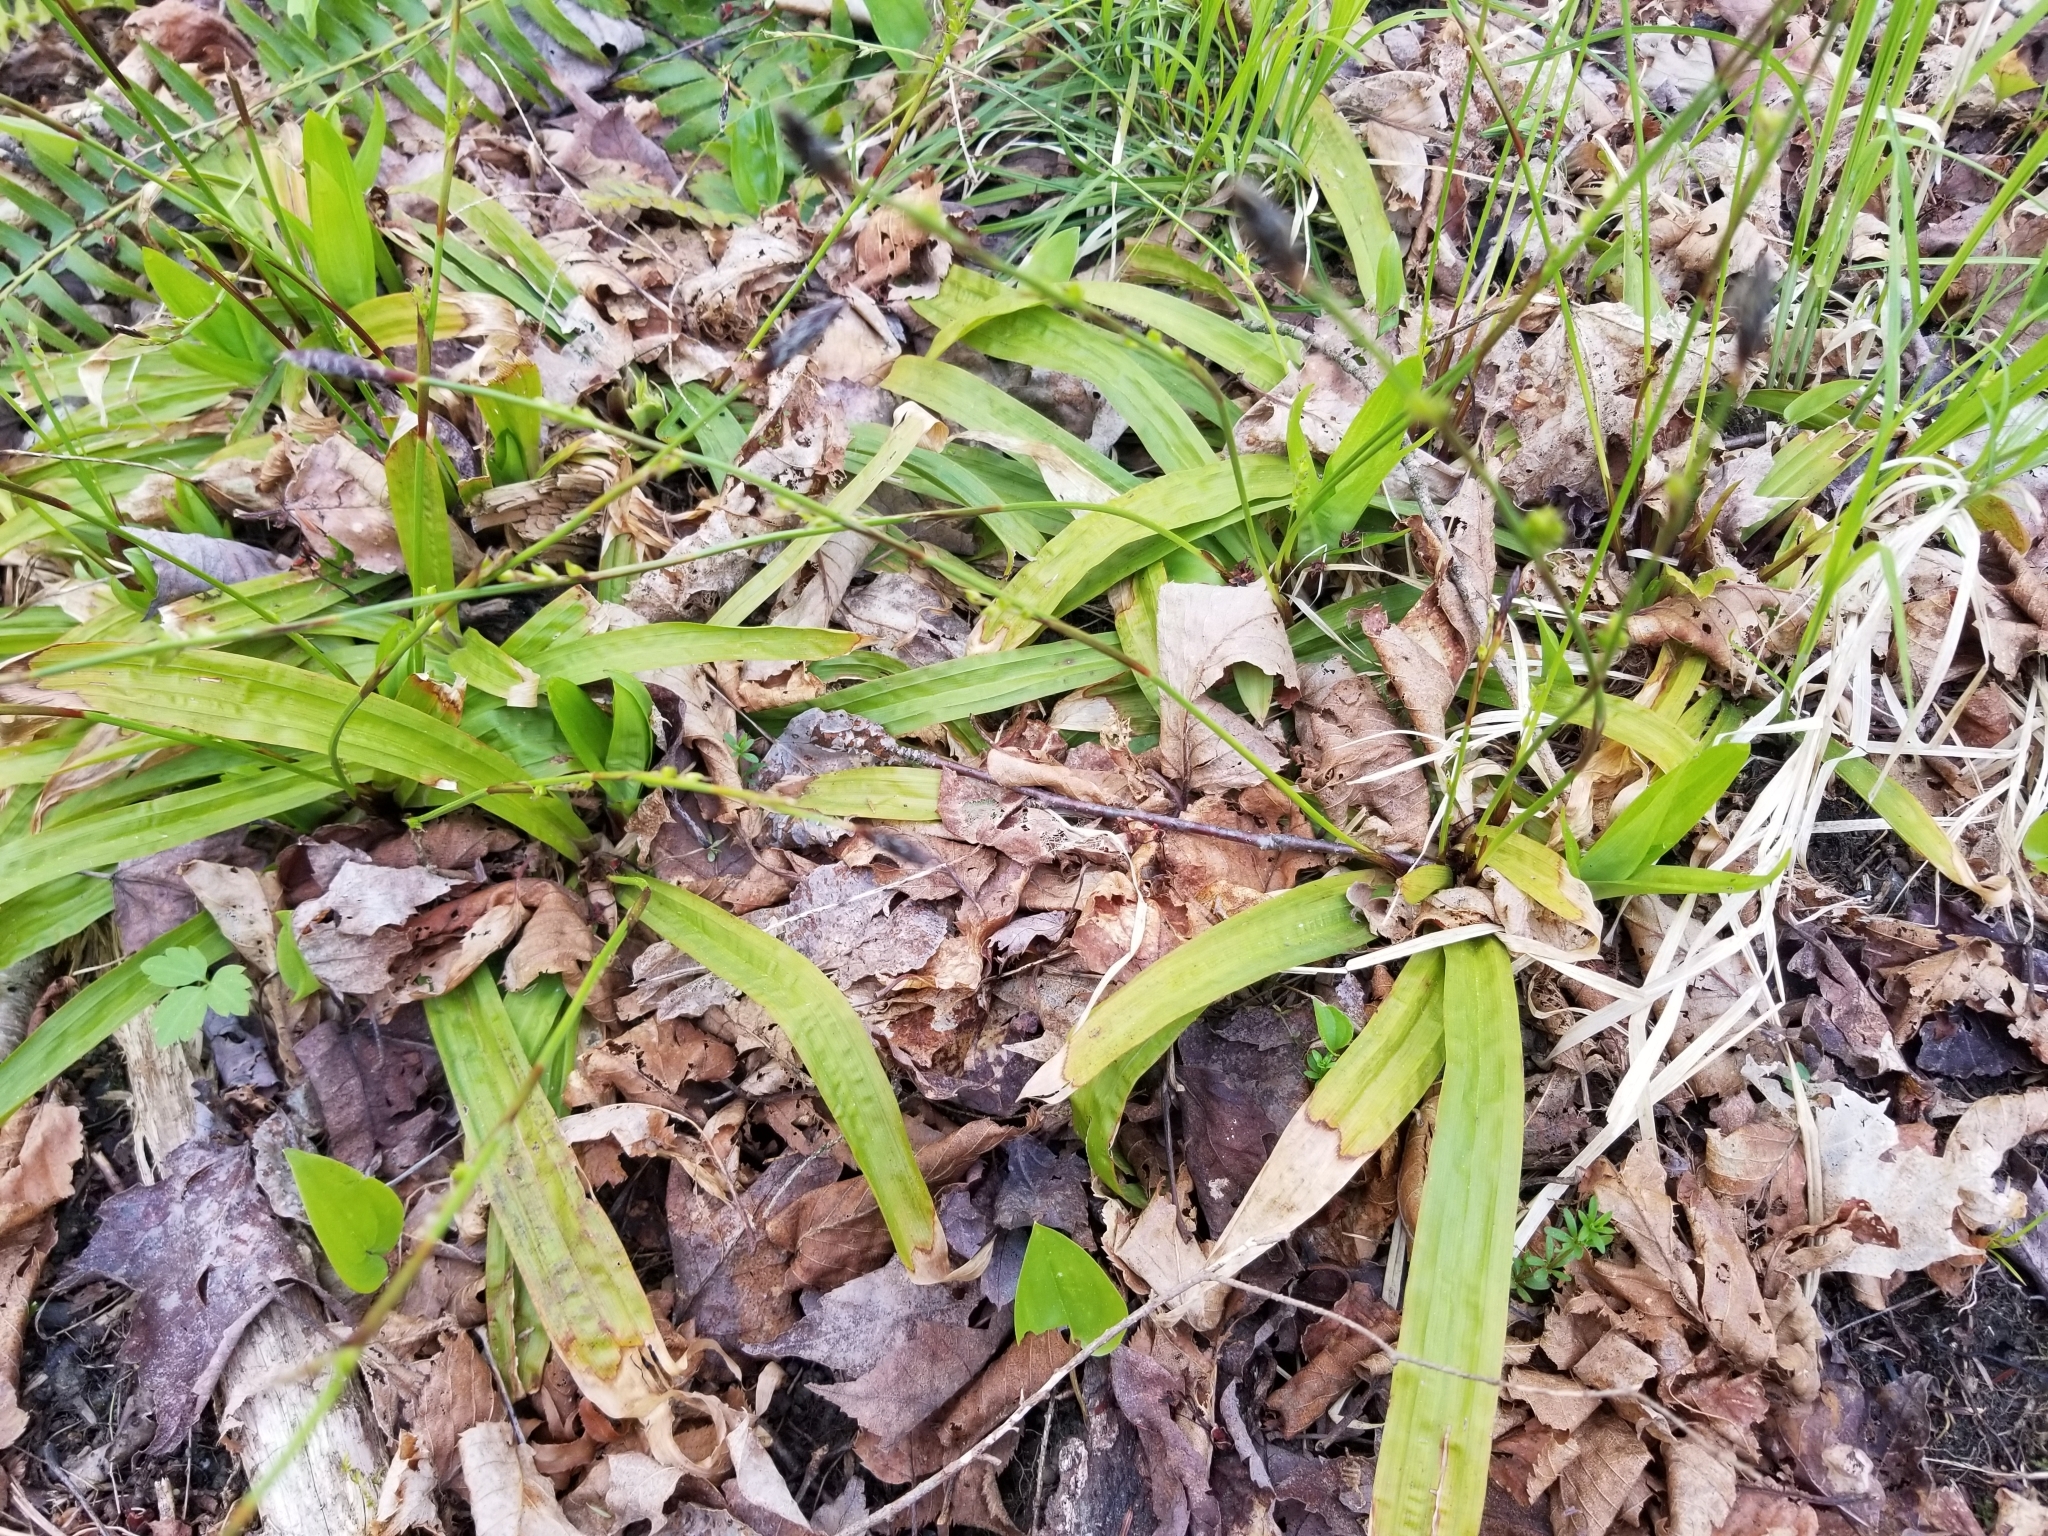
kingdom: Plantae
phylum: Tracheophyta
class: Liliopsida
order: Poales
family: Cyperaceae
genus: Carex
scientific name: Carex plantaginea
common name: Plantain-leaved sedge
